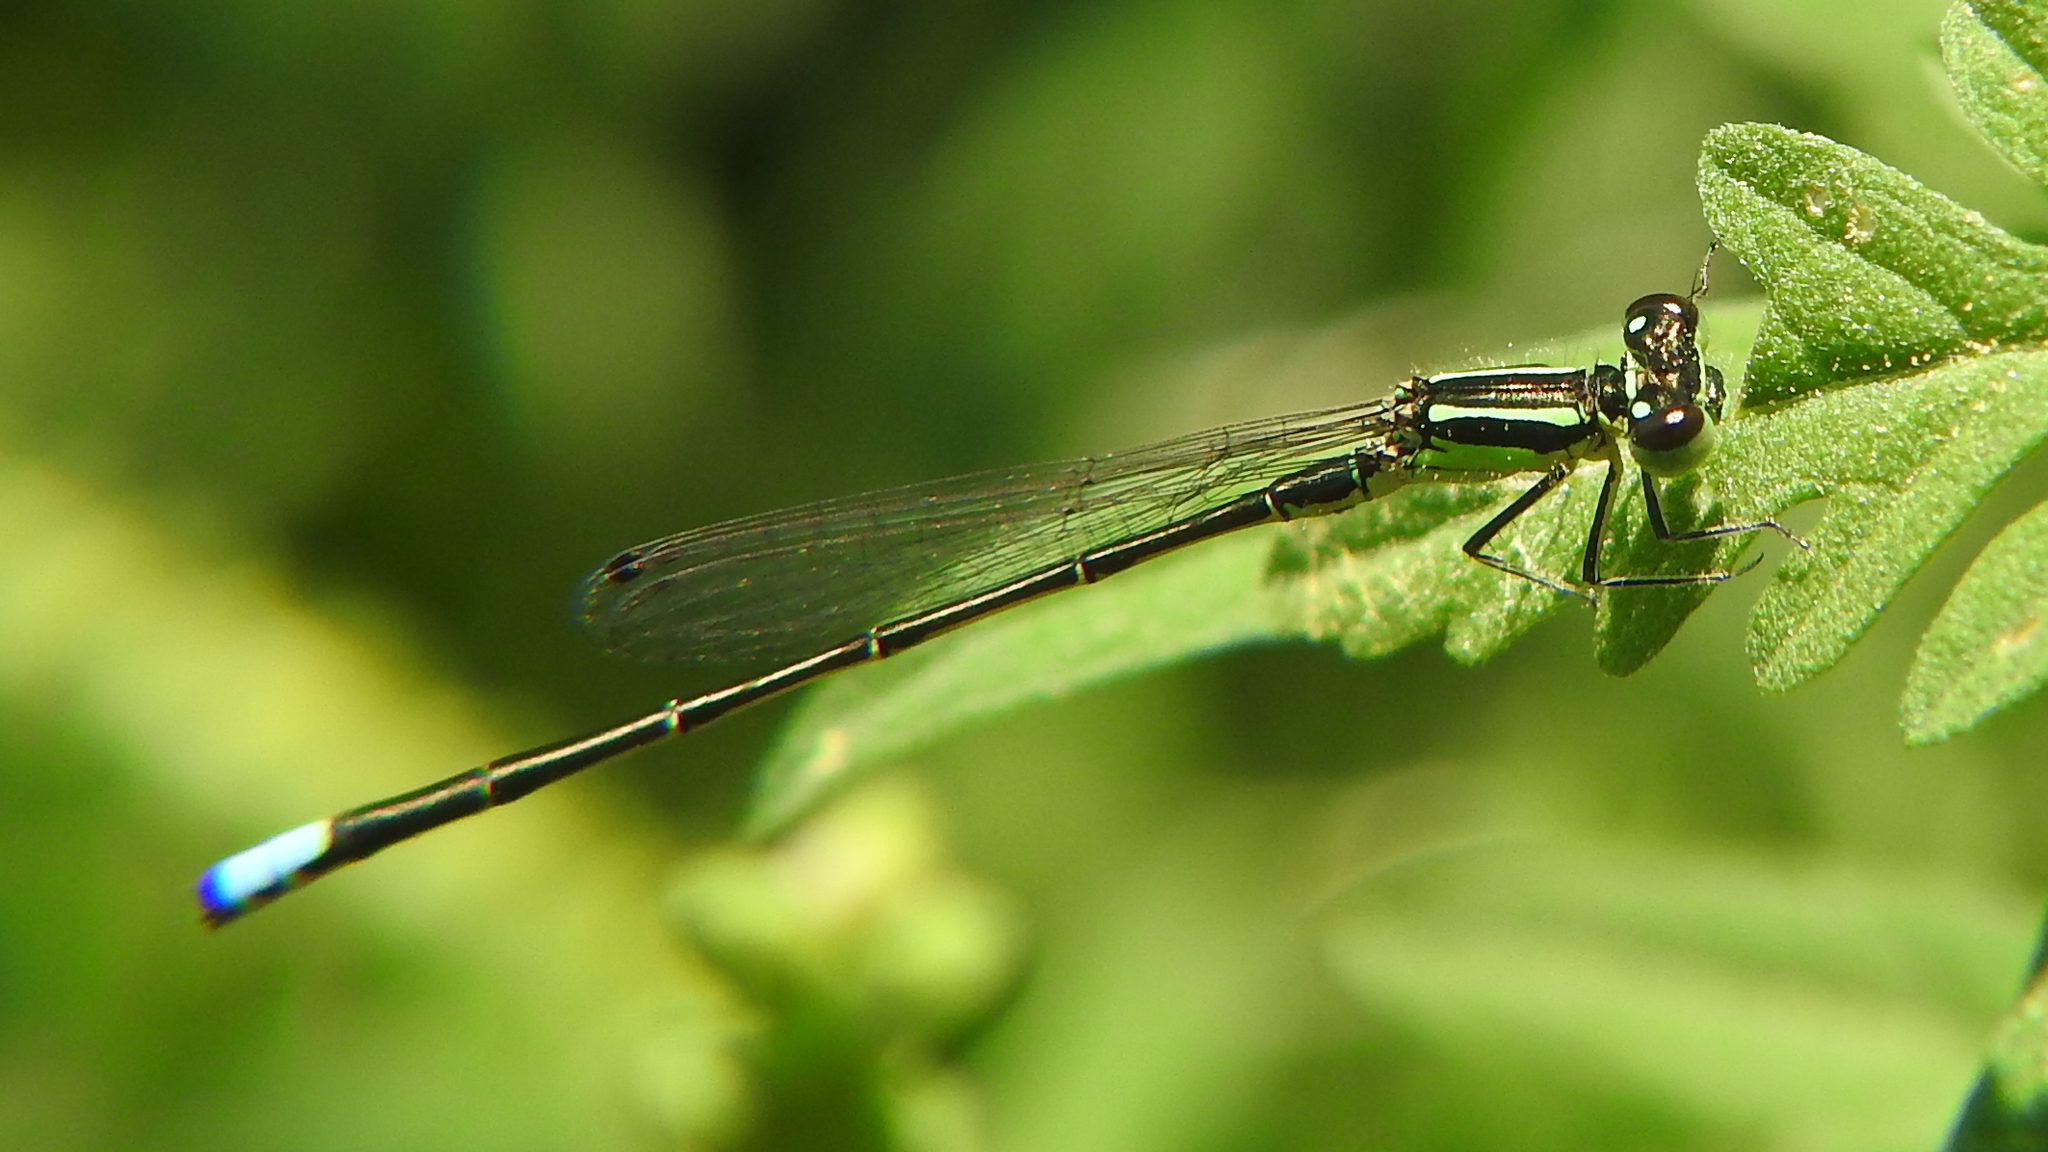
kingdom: Animalia
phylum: Arthropoda
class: Insecta
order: Odonata
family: Coenagrionidae
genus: Ischnura
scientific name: Ischnura verticalis
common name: Eastern forktail
